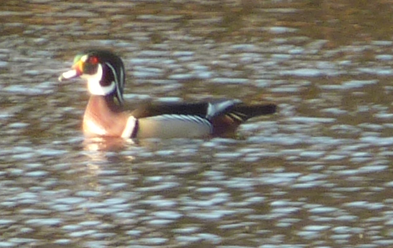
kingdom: Animalia
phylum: Chordata
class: Aves
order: Anseriformes
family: Anatidae
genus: Aix
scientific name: Aix sponsa
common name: Wood duck
